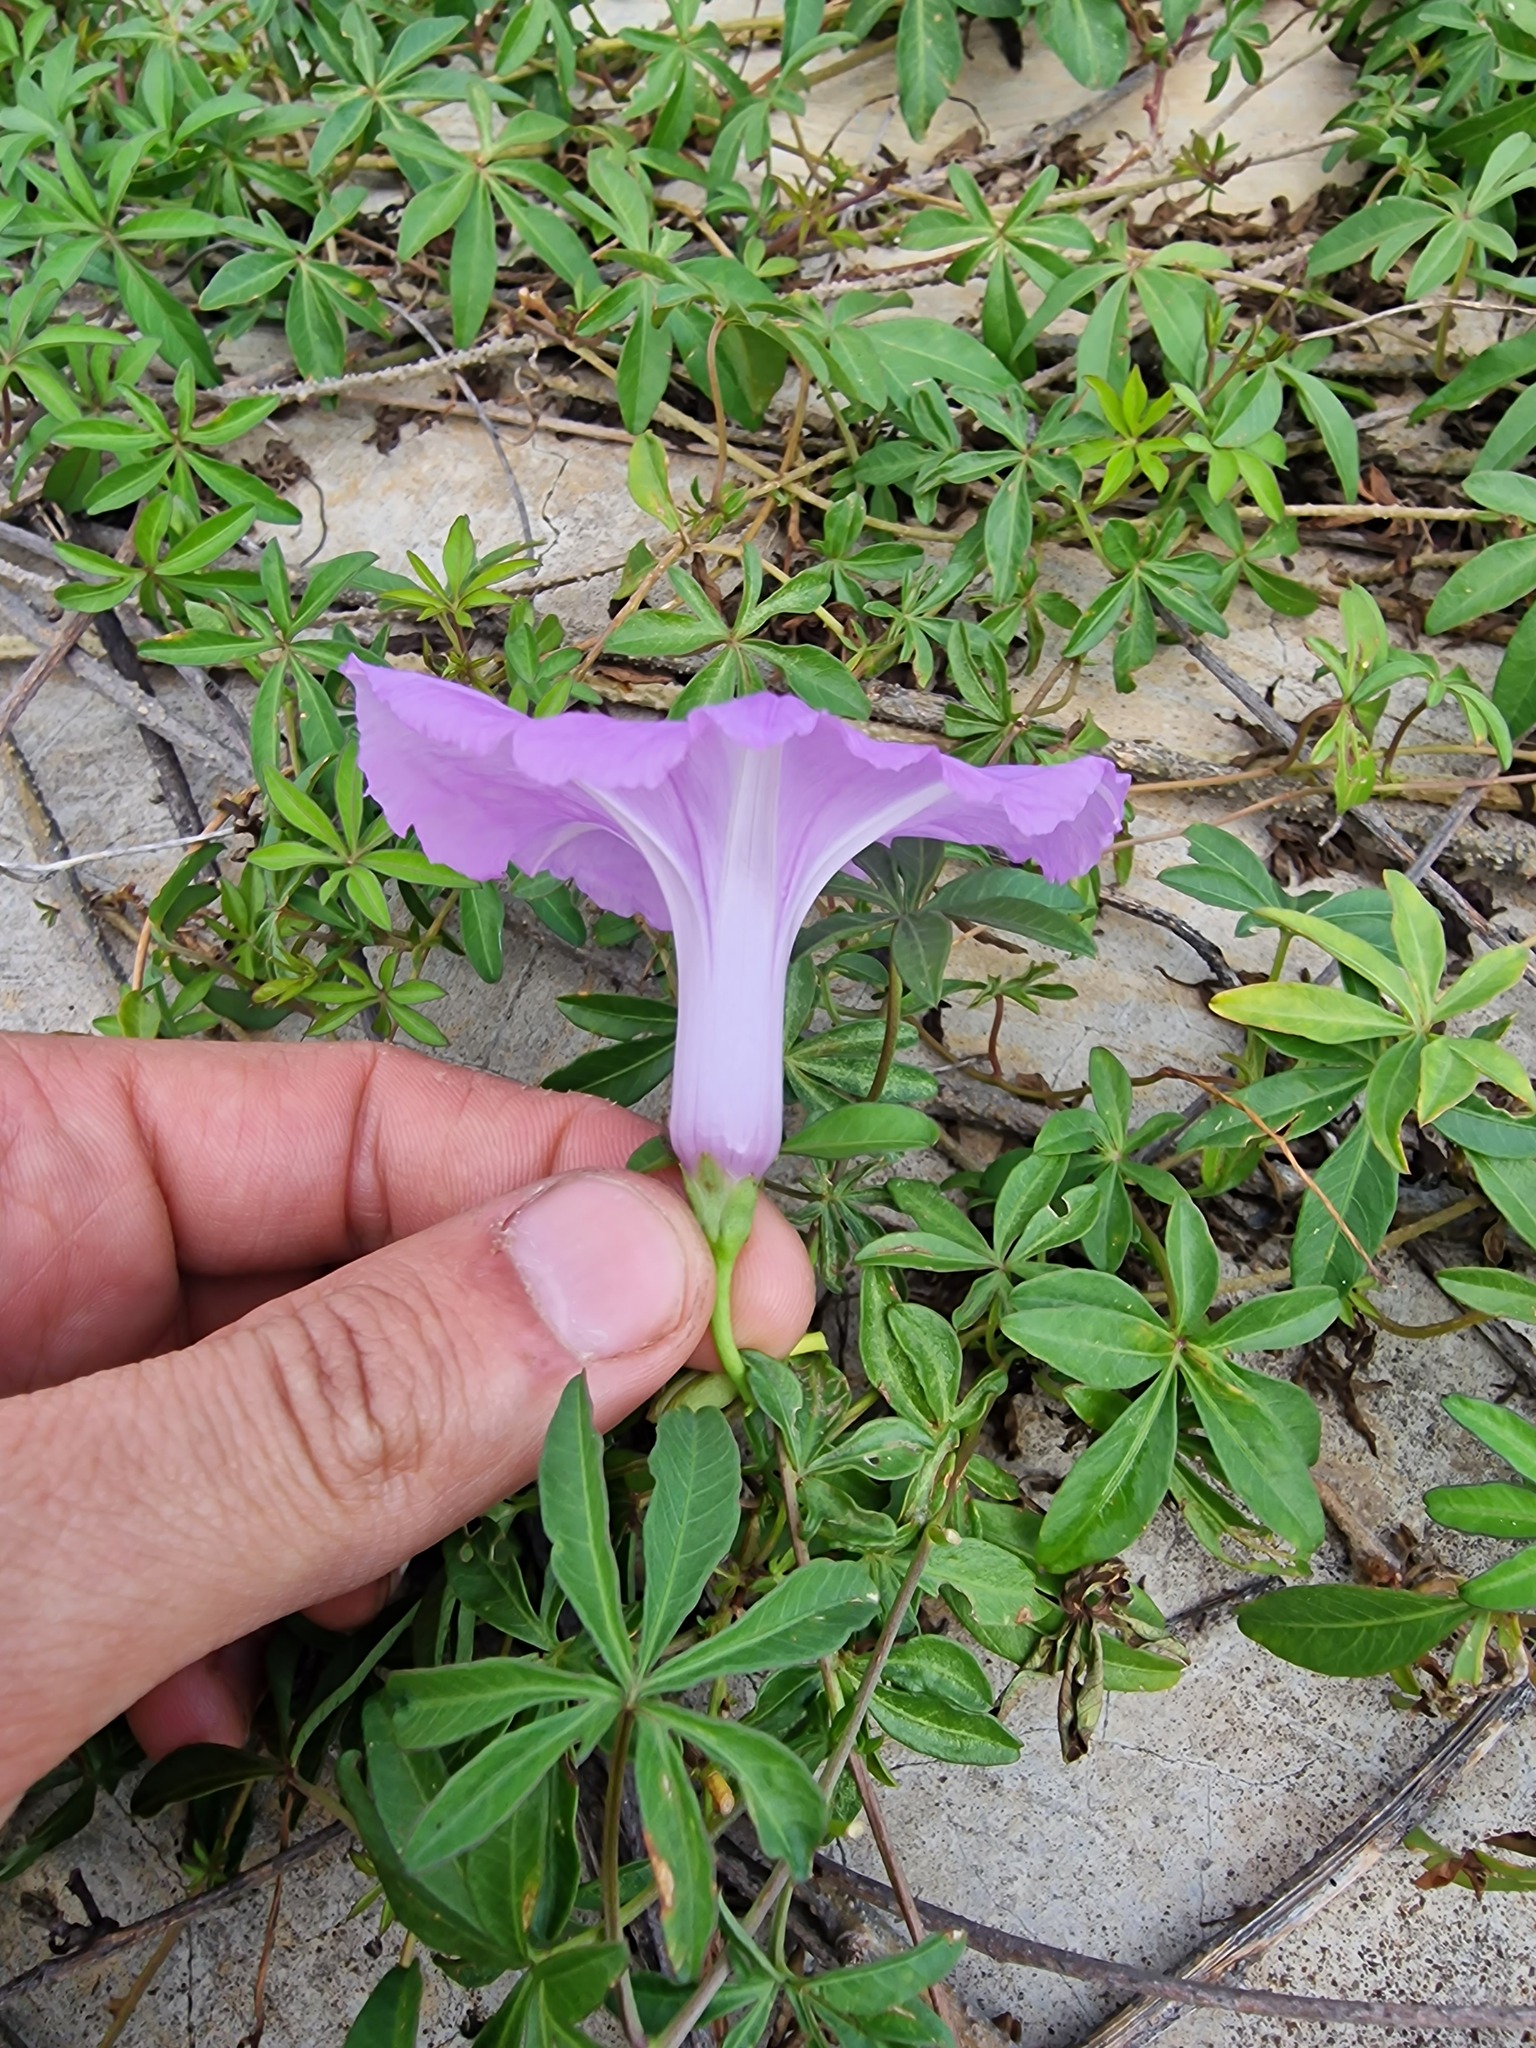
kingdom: Plantae
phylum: Tracheophyta
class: Magnoliopsida
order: Solanales
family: Convolvulaceae
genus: Ipomoea
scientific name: Ipomoea cairica
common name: Mile a minute vine
